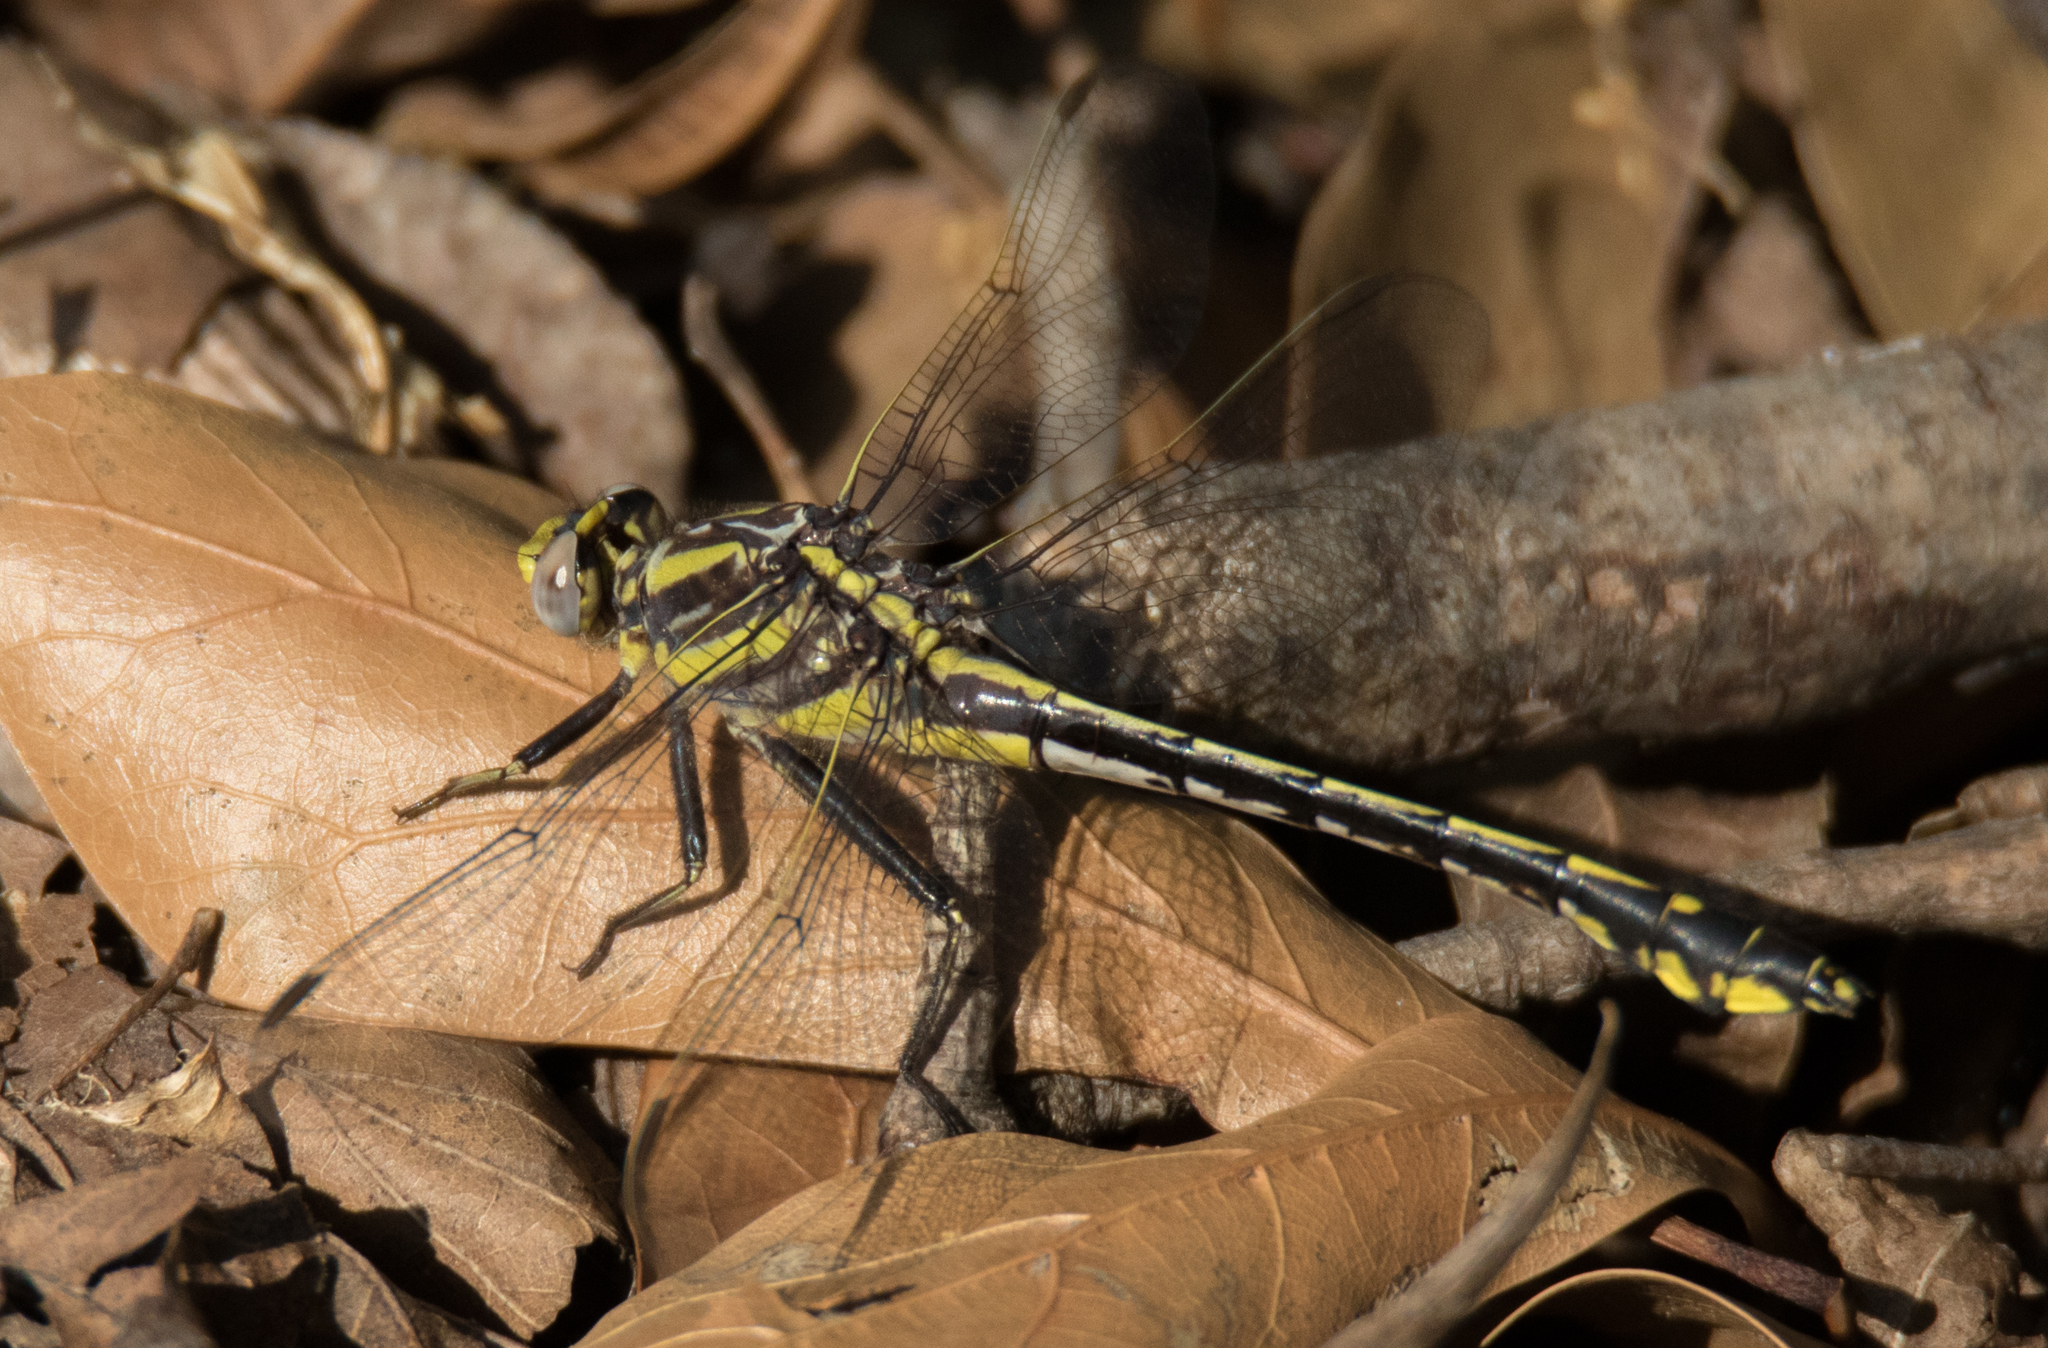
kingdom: Animalia
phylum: Arthropoda
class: Insecta
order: Odonata
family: Gomphidae
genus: Gomphurus
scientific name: Gomphurus externus
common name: Plains clubtail
